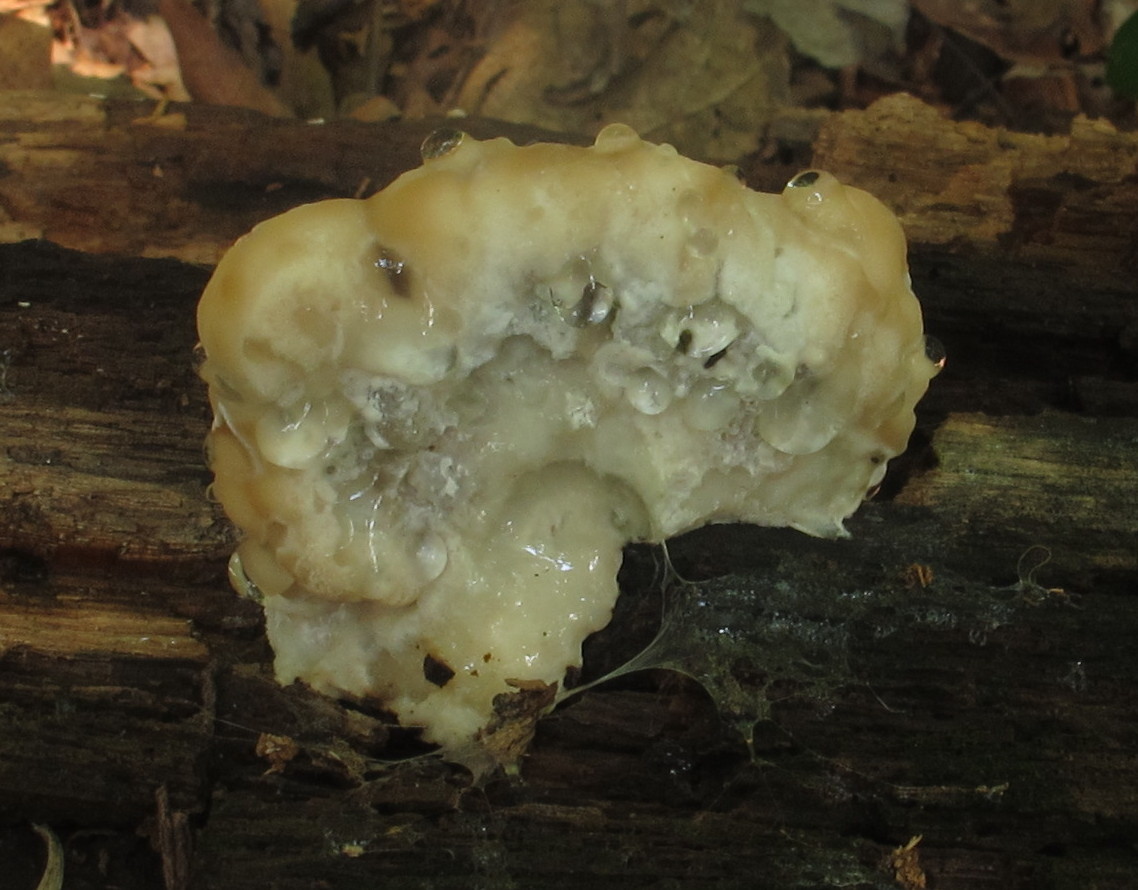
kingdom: Fungi
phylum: Basidiomycota
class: Agaricomycetes
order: Polyporales
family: Fomitopsidaceae
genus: Niveoporofomes
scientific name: Niveoporofomes spraguei
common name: Green cheese polypore
